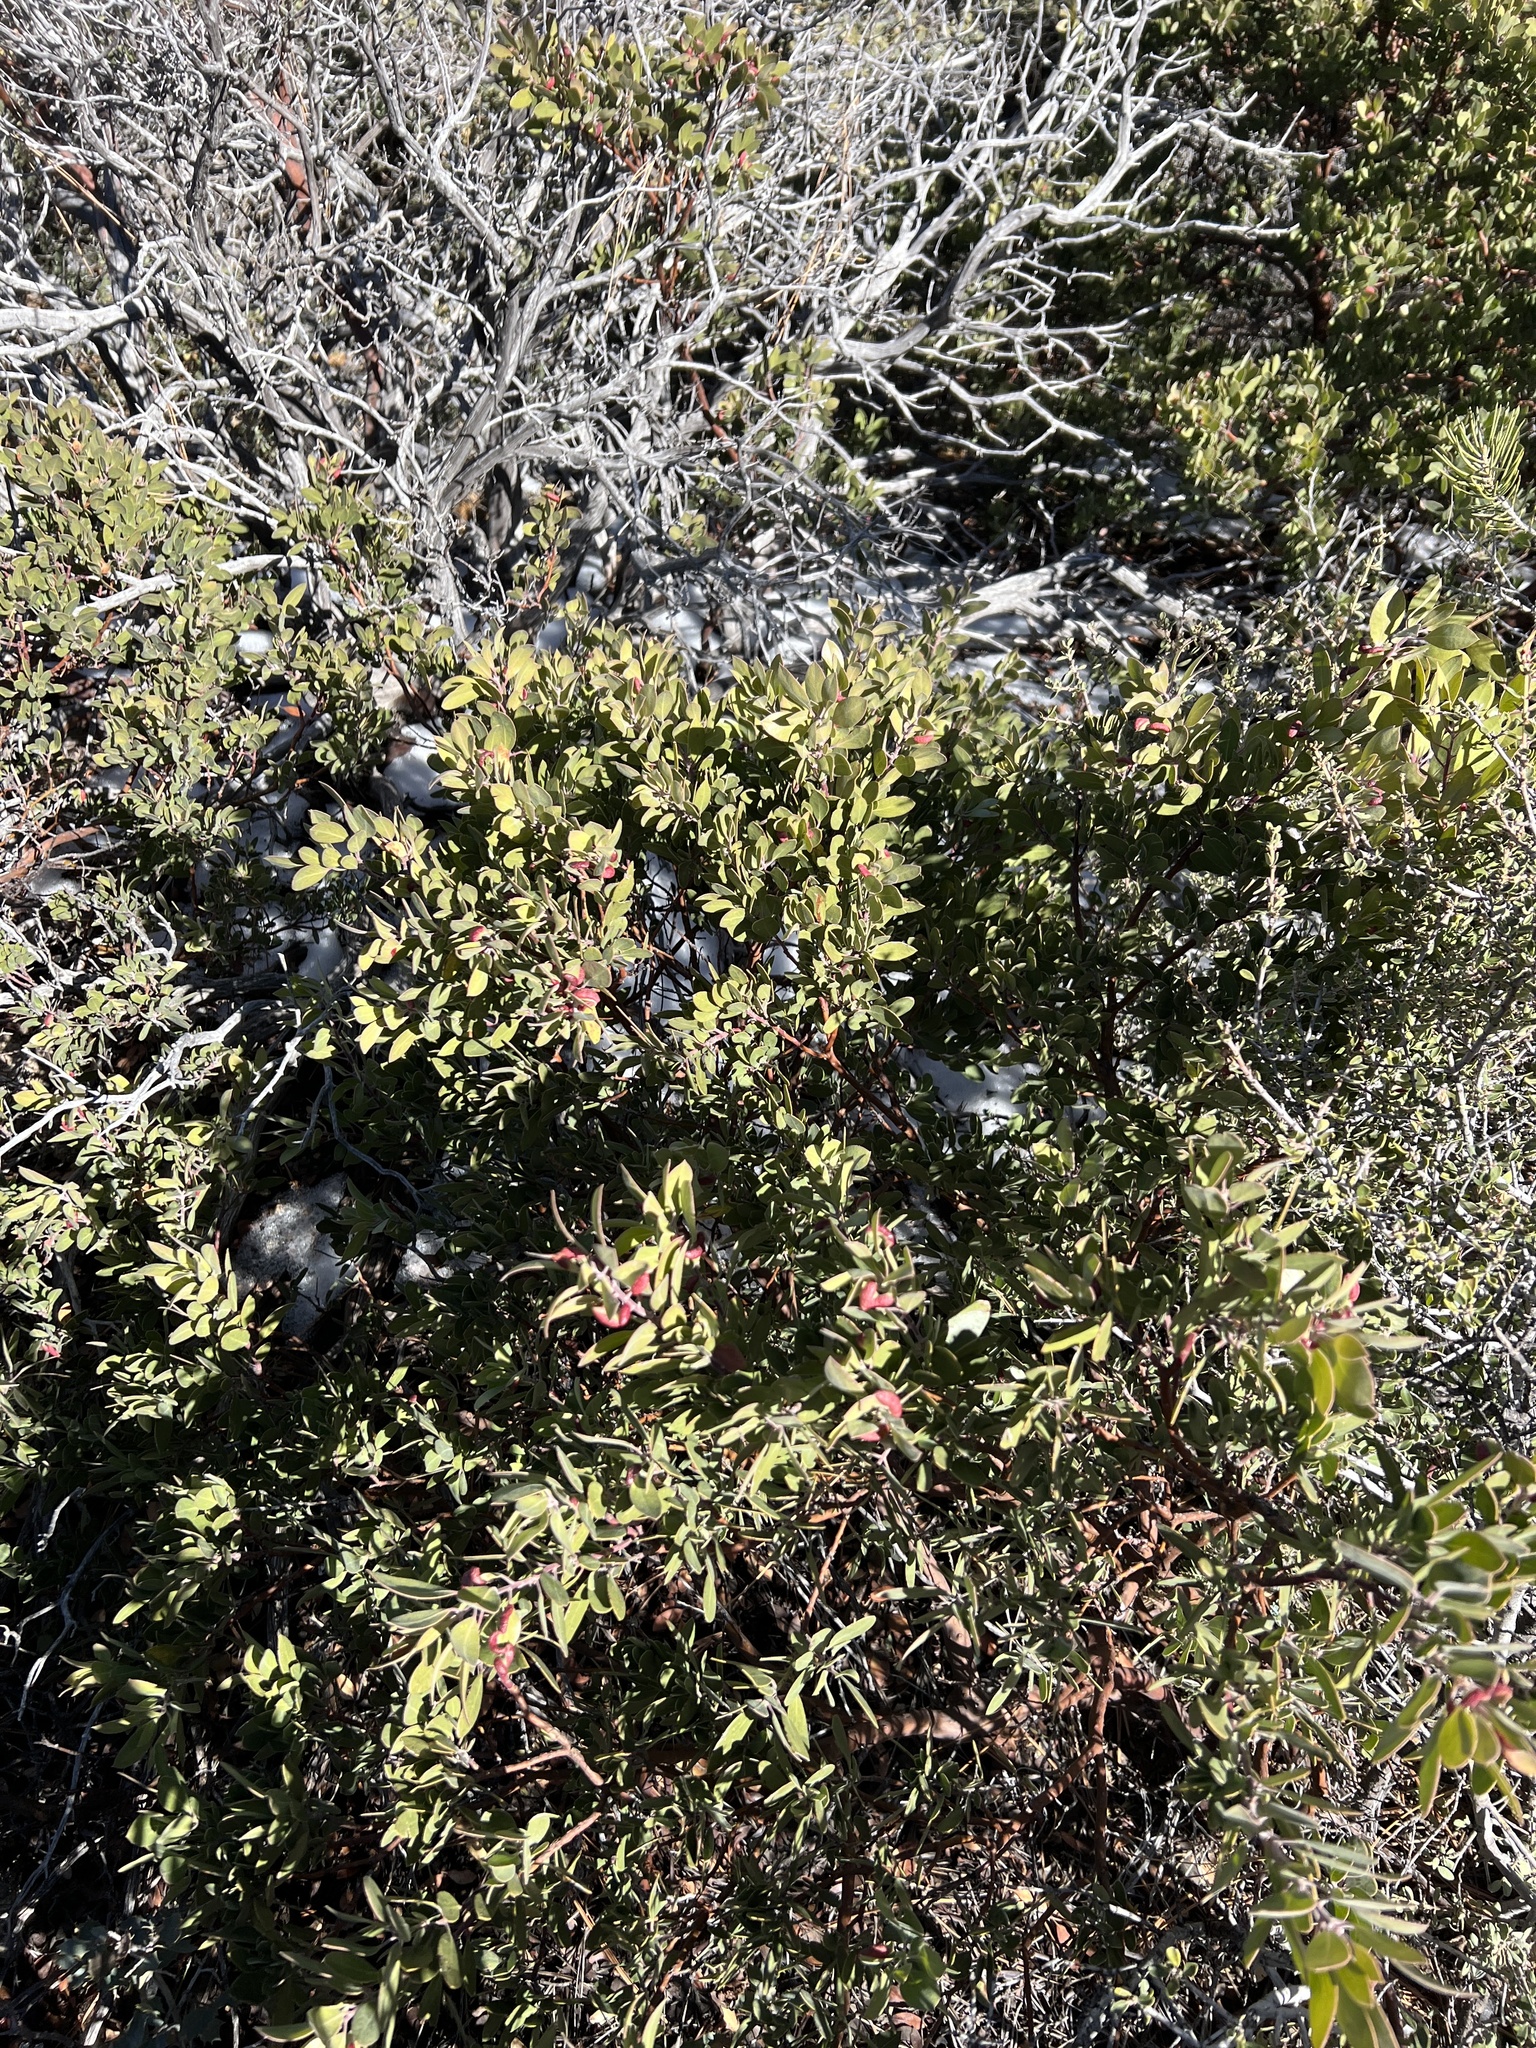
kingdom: Plantae
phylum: Tracheophyta
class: Magnoliopsida
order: Ericales
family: Ericaceae
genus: Arctostaphylos
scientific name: Arctostaphylos pungens
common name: Mexican manzanita
